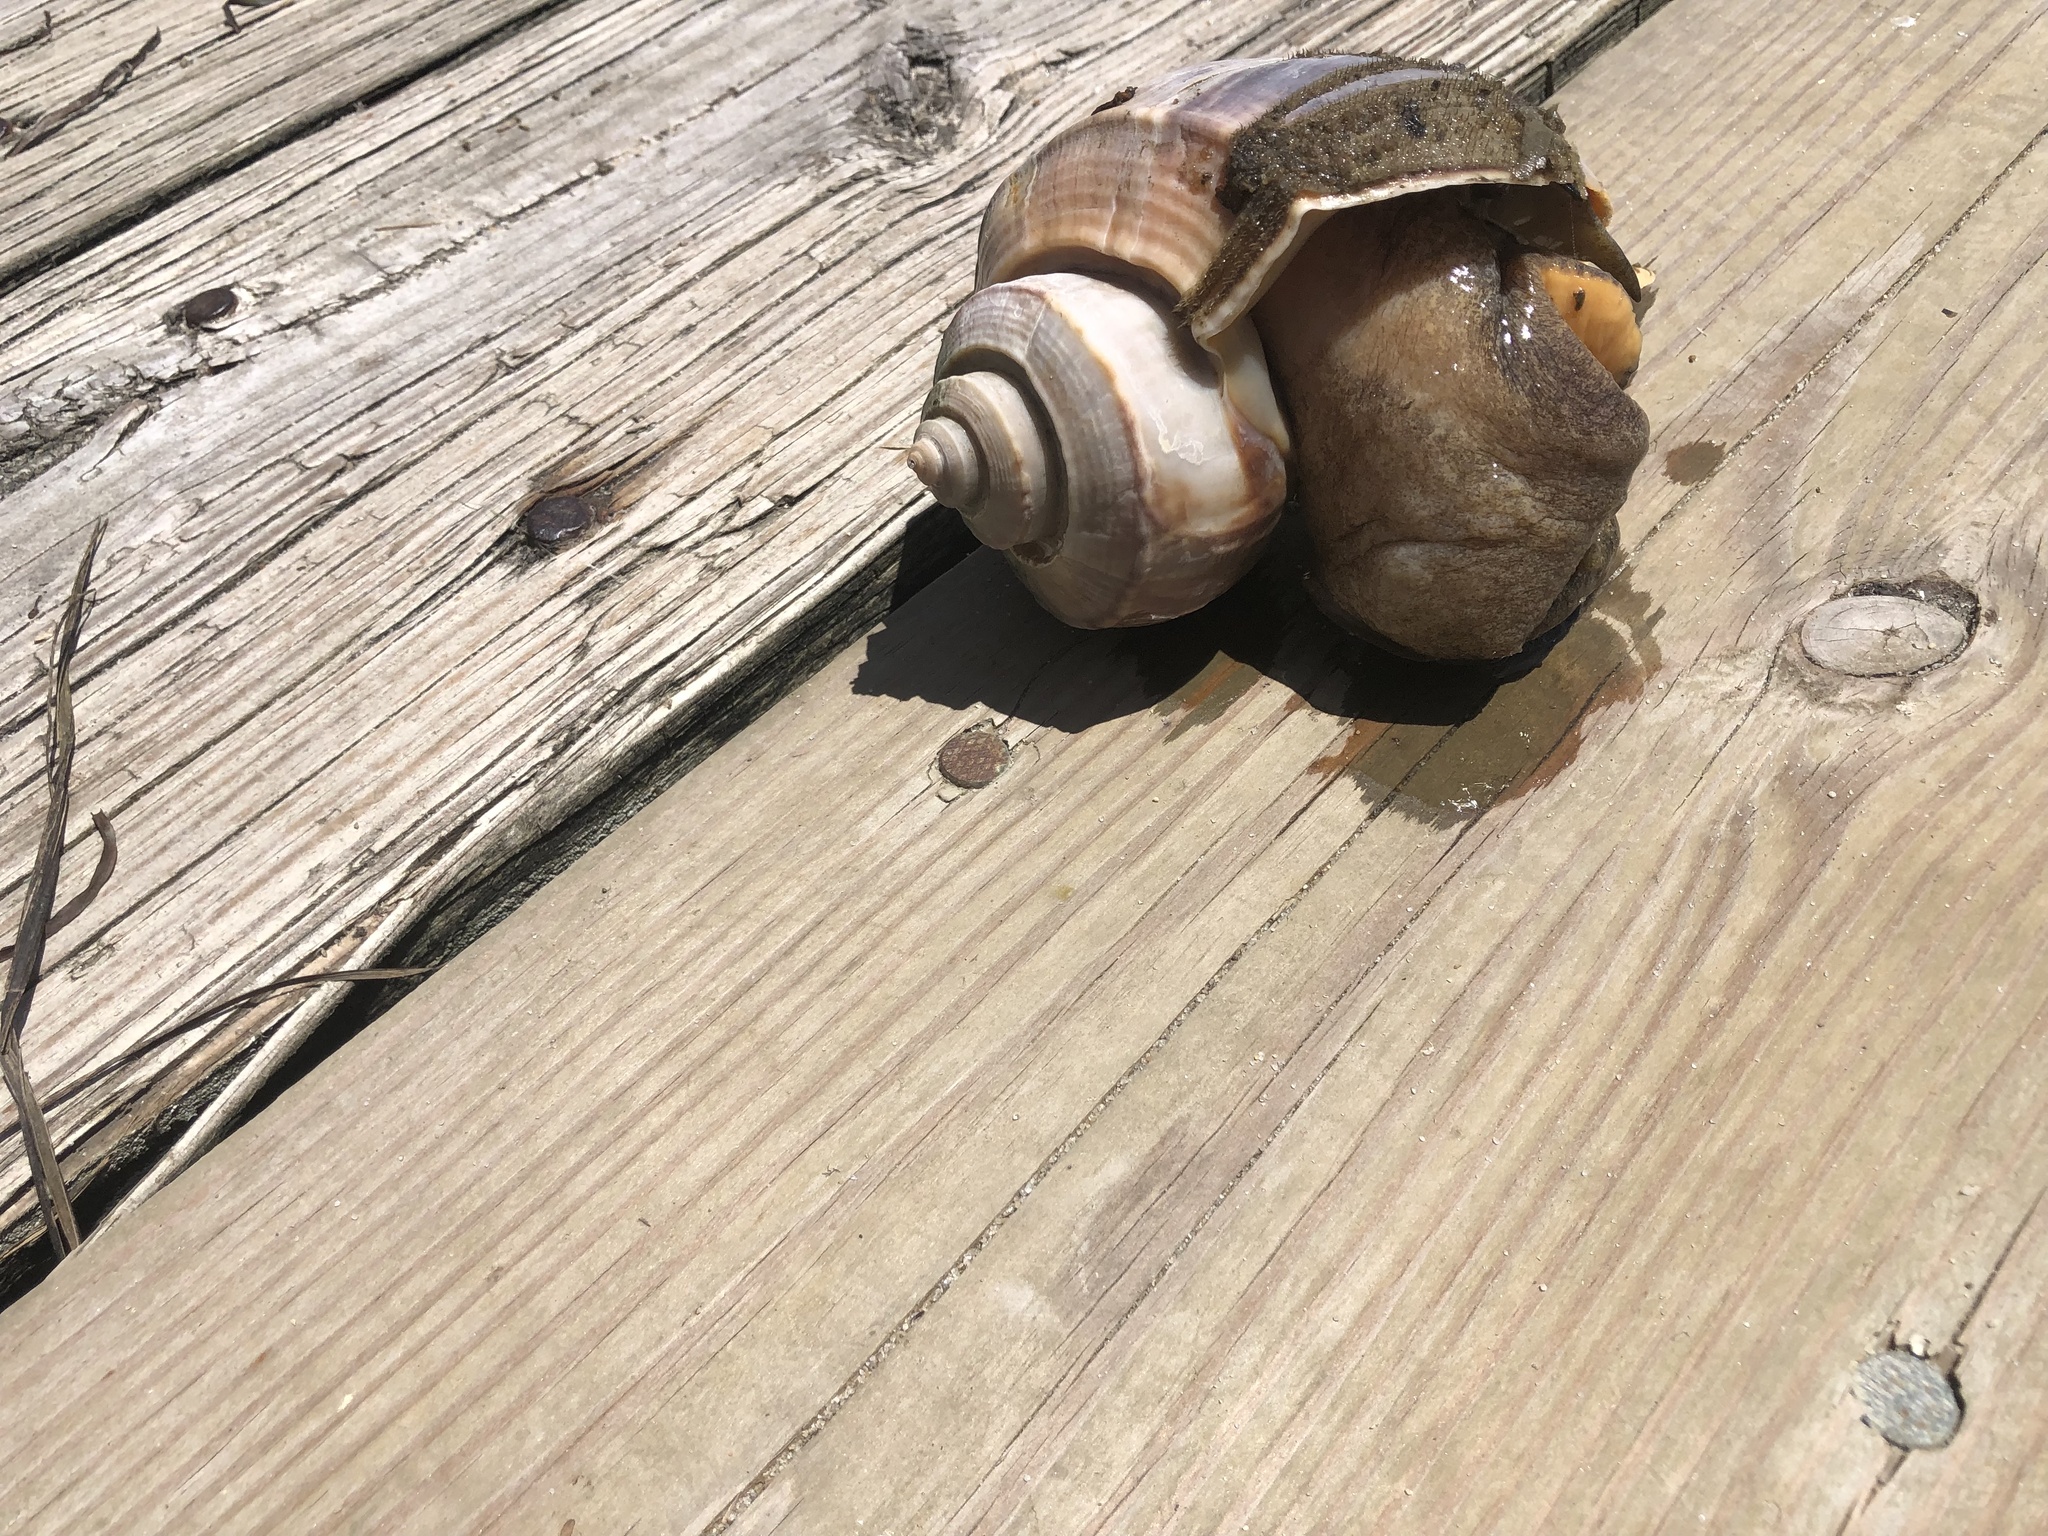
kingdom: Animalia
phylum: Mollusca
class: Gastropoda
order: Neogastropoda
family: Busyconidae
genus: Busycotypus
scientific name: Busycotypus canaliculatus
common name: Channeled whelk
